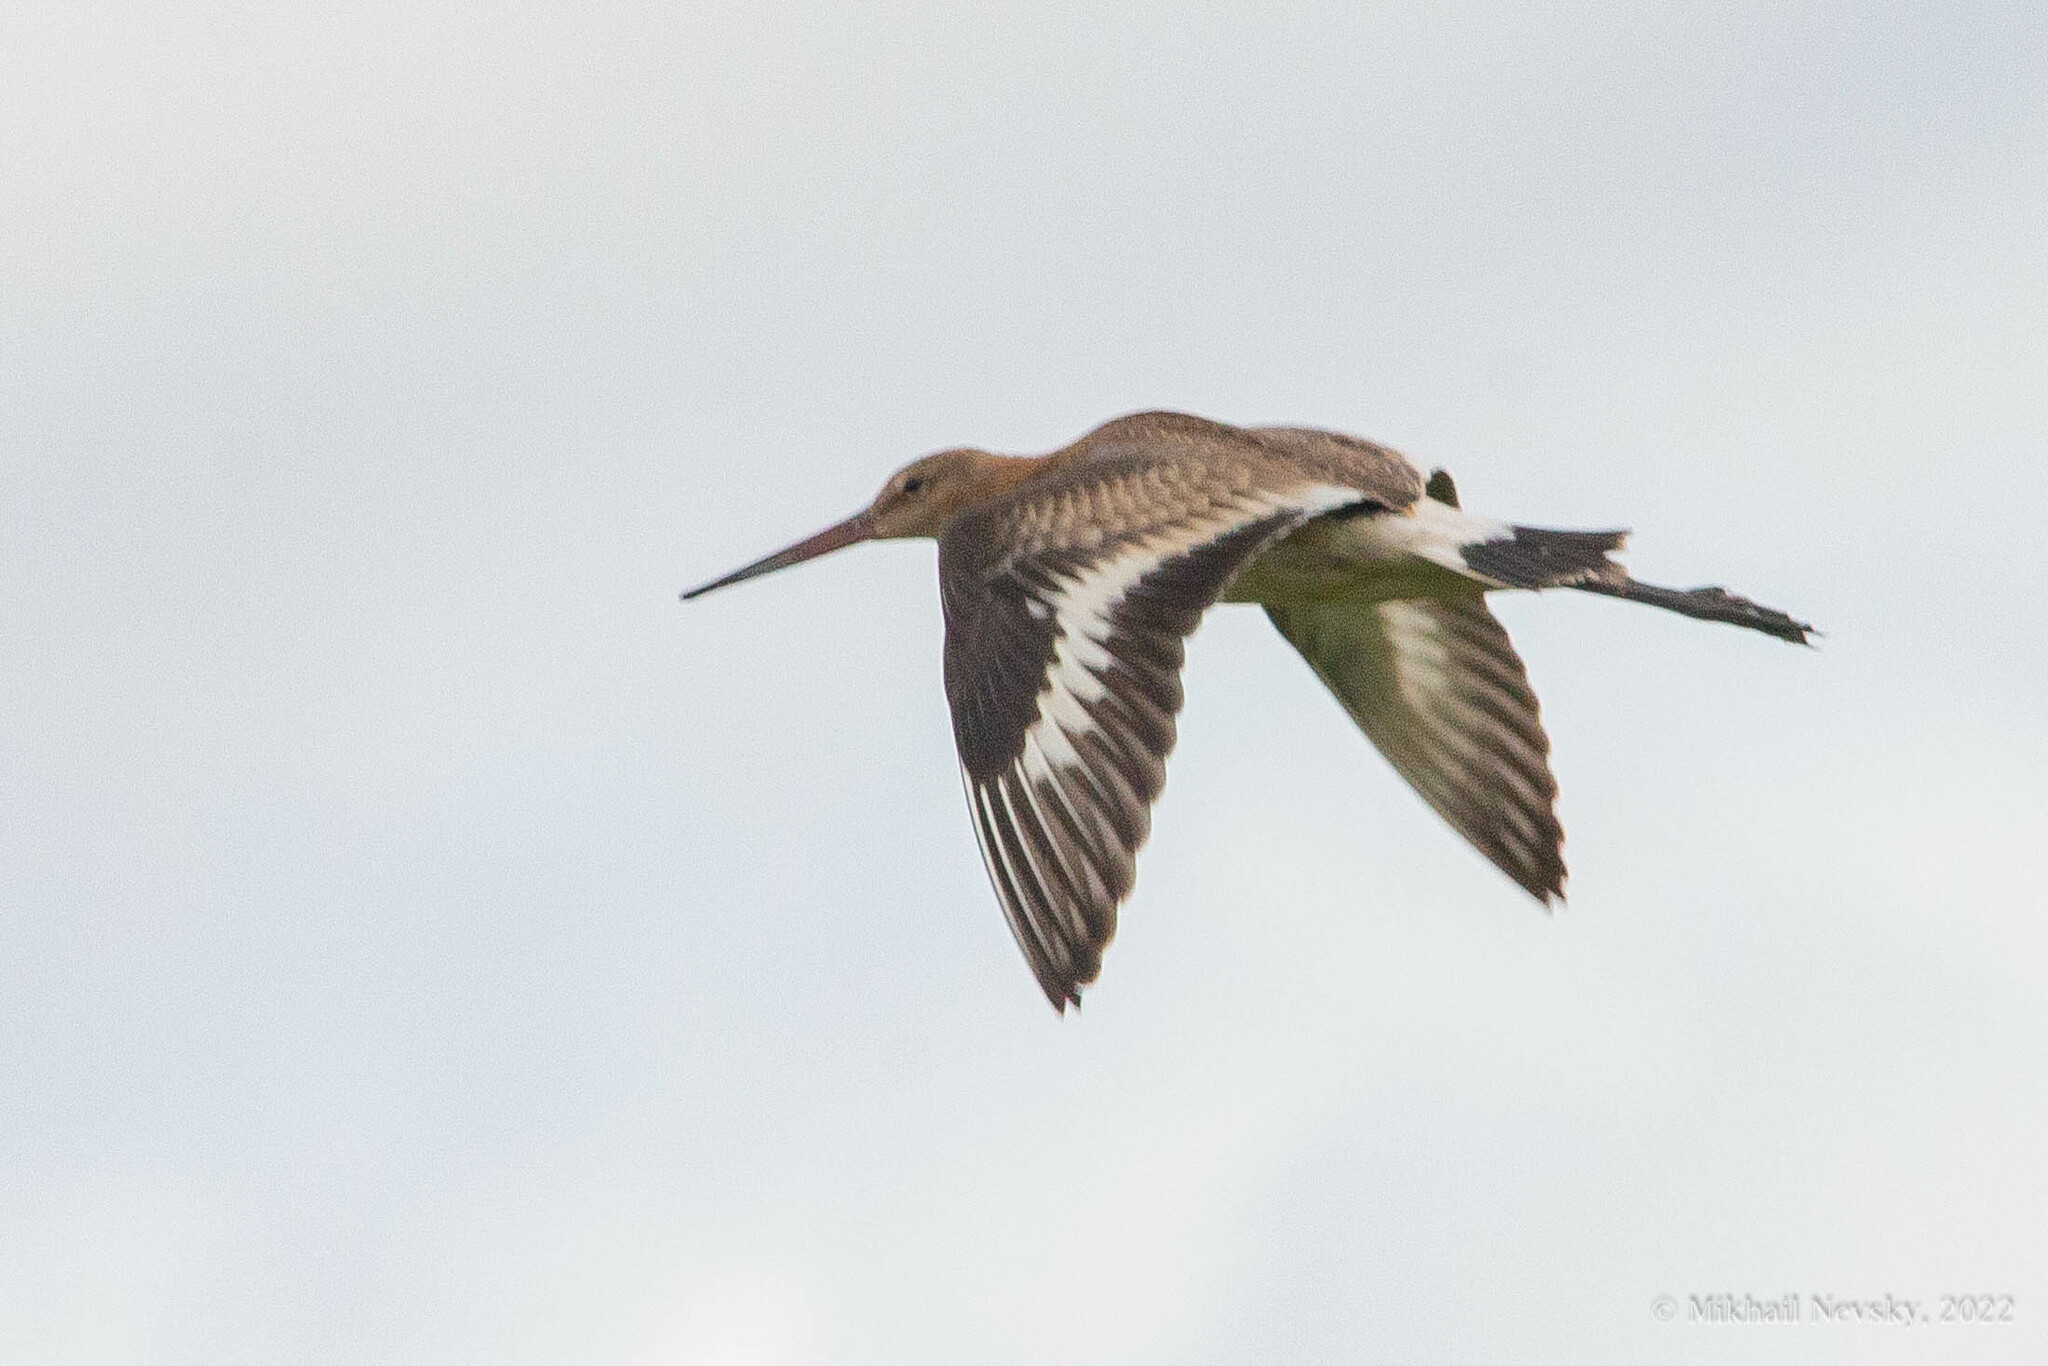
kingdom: Animalia
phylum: Chordata
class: Aves
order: Charadriiformes
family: Scolopacidae
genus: Limosa
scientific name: Limosa limosa
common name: Black-tailed godwit
